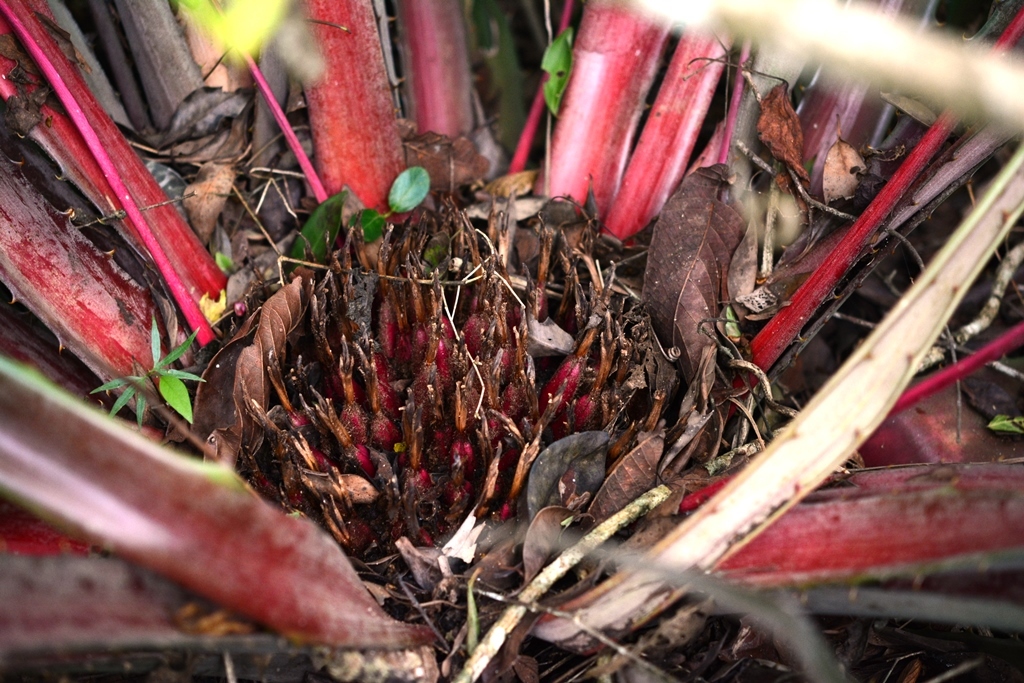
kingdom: Plantae
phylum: Tracheophyta
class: Liliopsida
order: Poales
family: Bromeliaceae
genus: Bromelia
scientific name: Bromelia karatas
